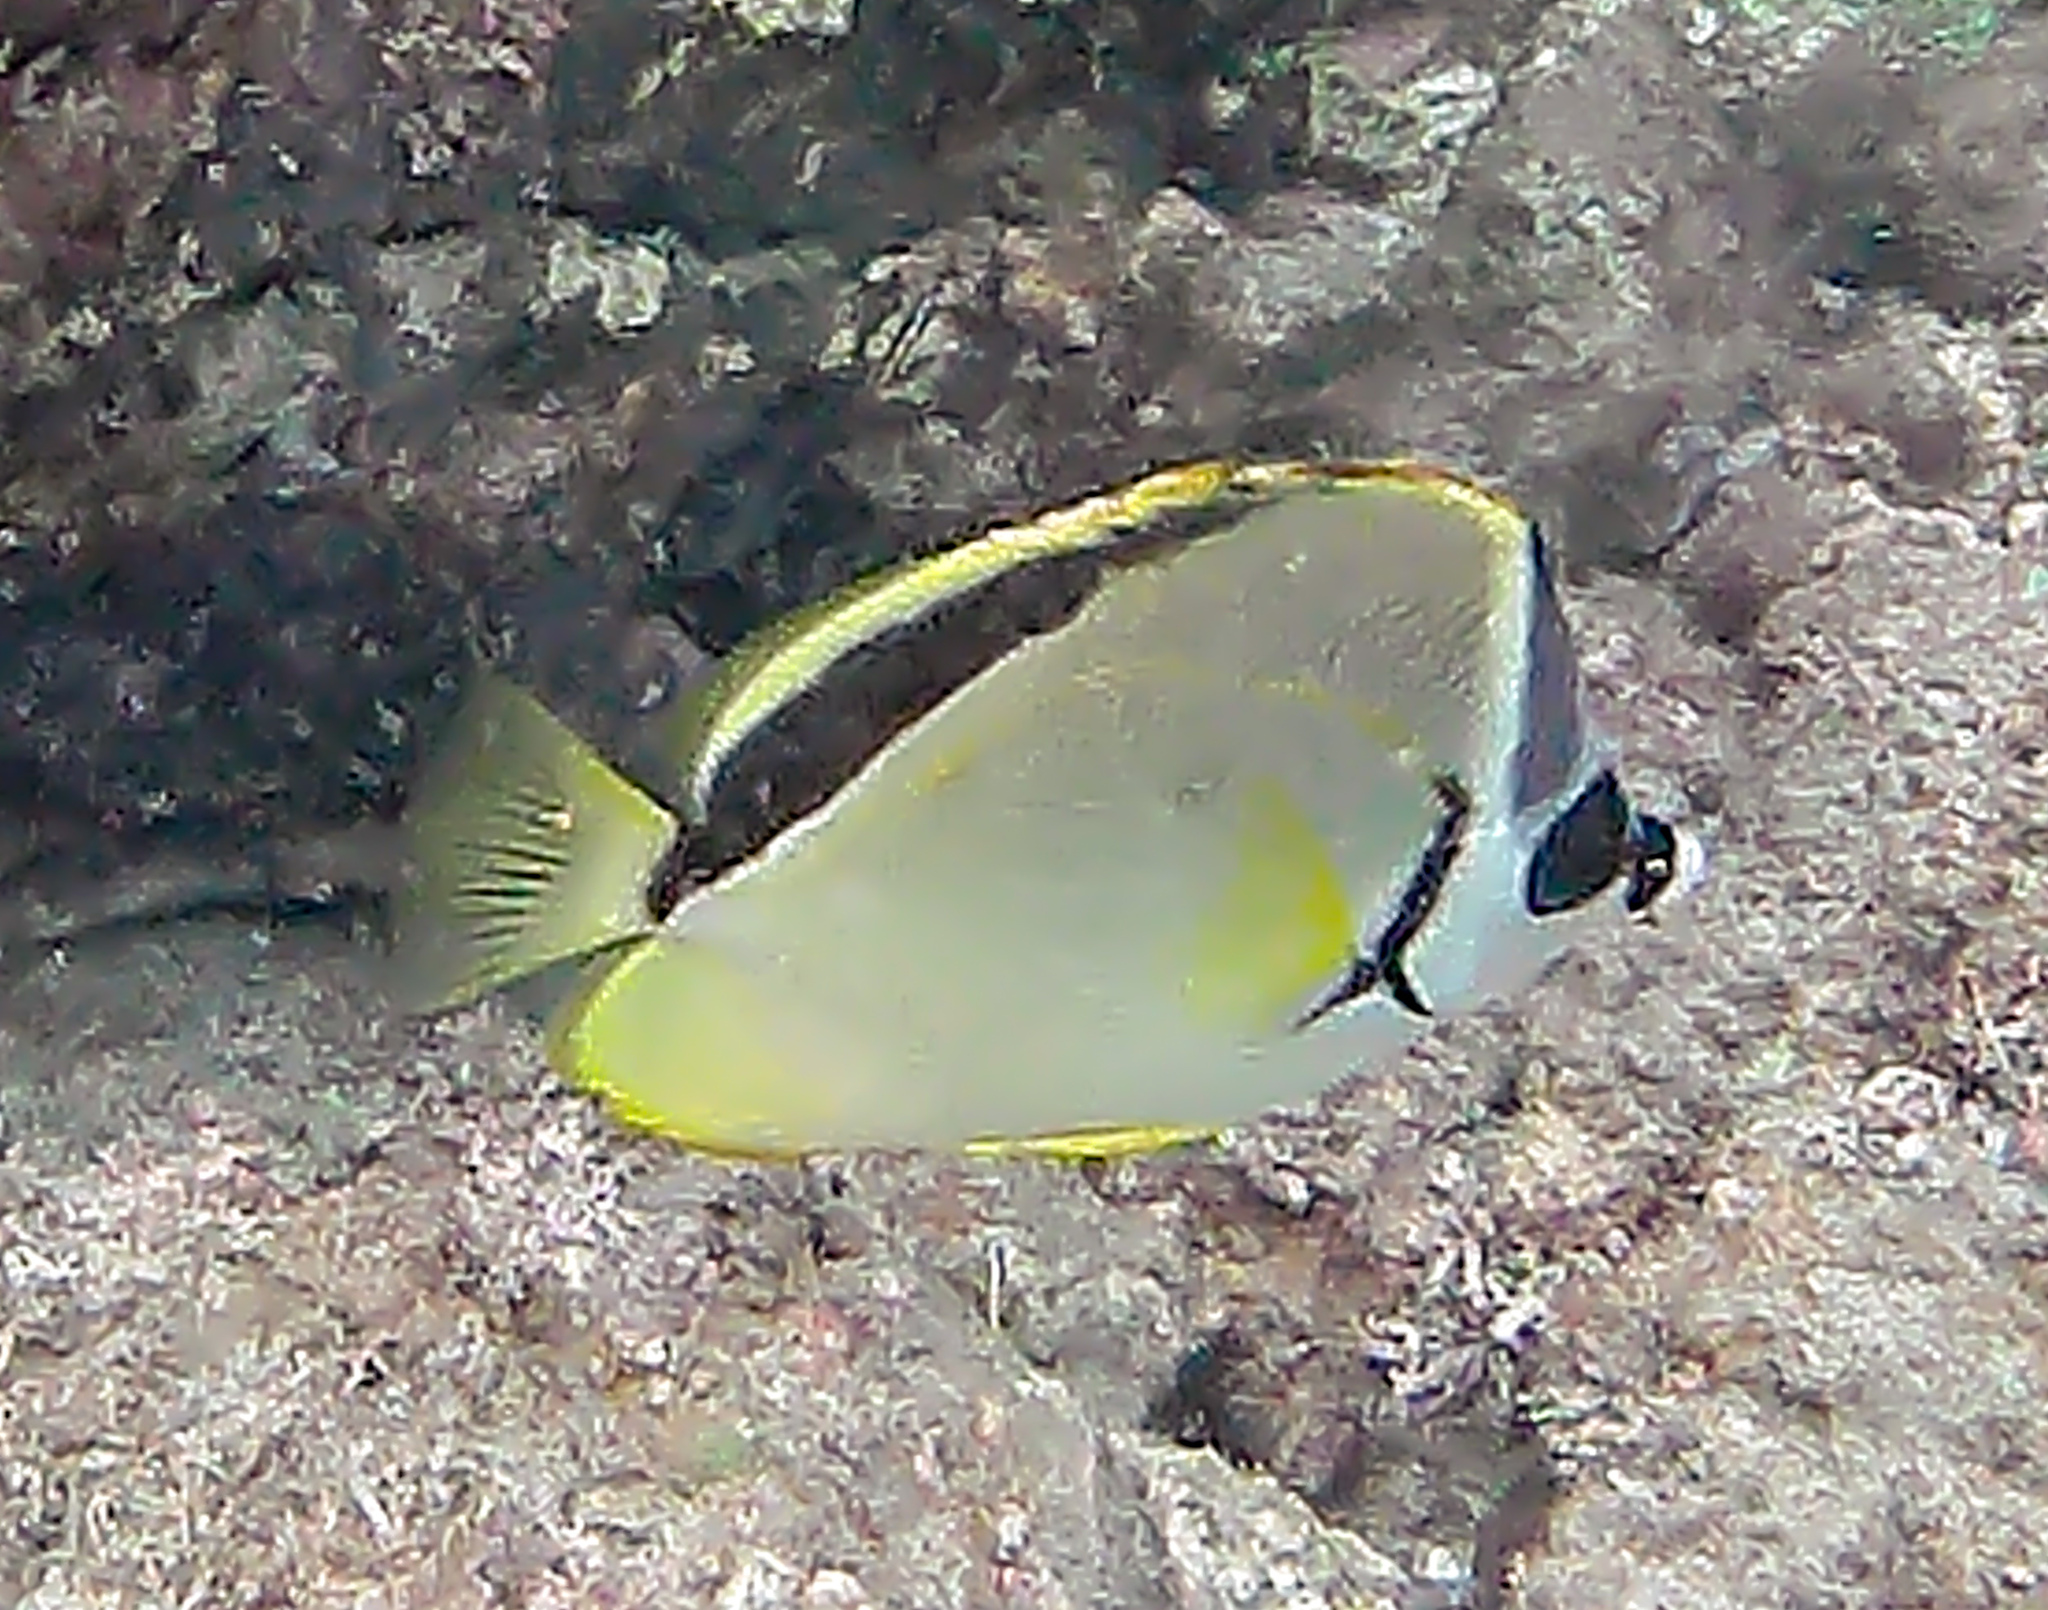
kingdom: Animalia
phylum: Chordata
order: Perciformes
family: Chaetodontidae
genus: Johnrandallia
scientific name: Johnrandallia nigrirostris
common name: Barberfish
